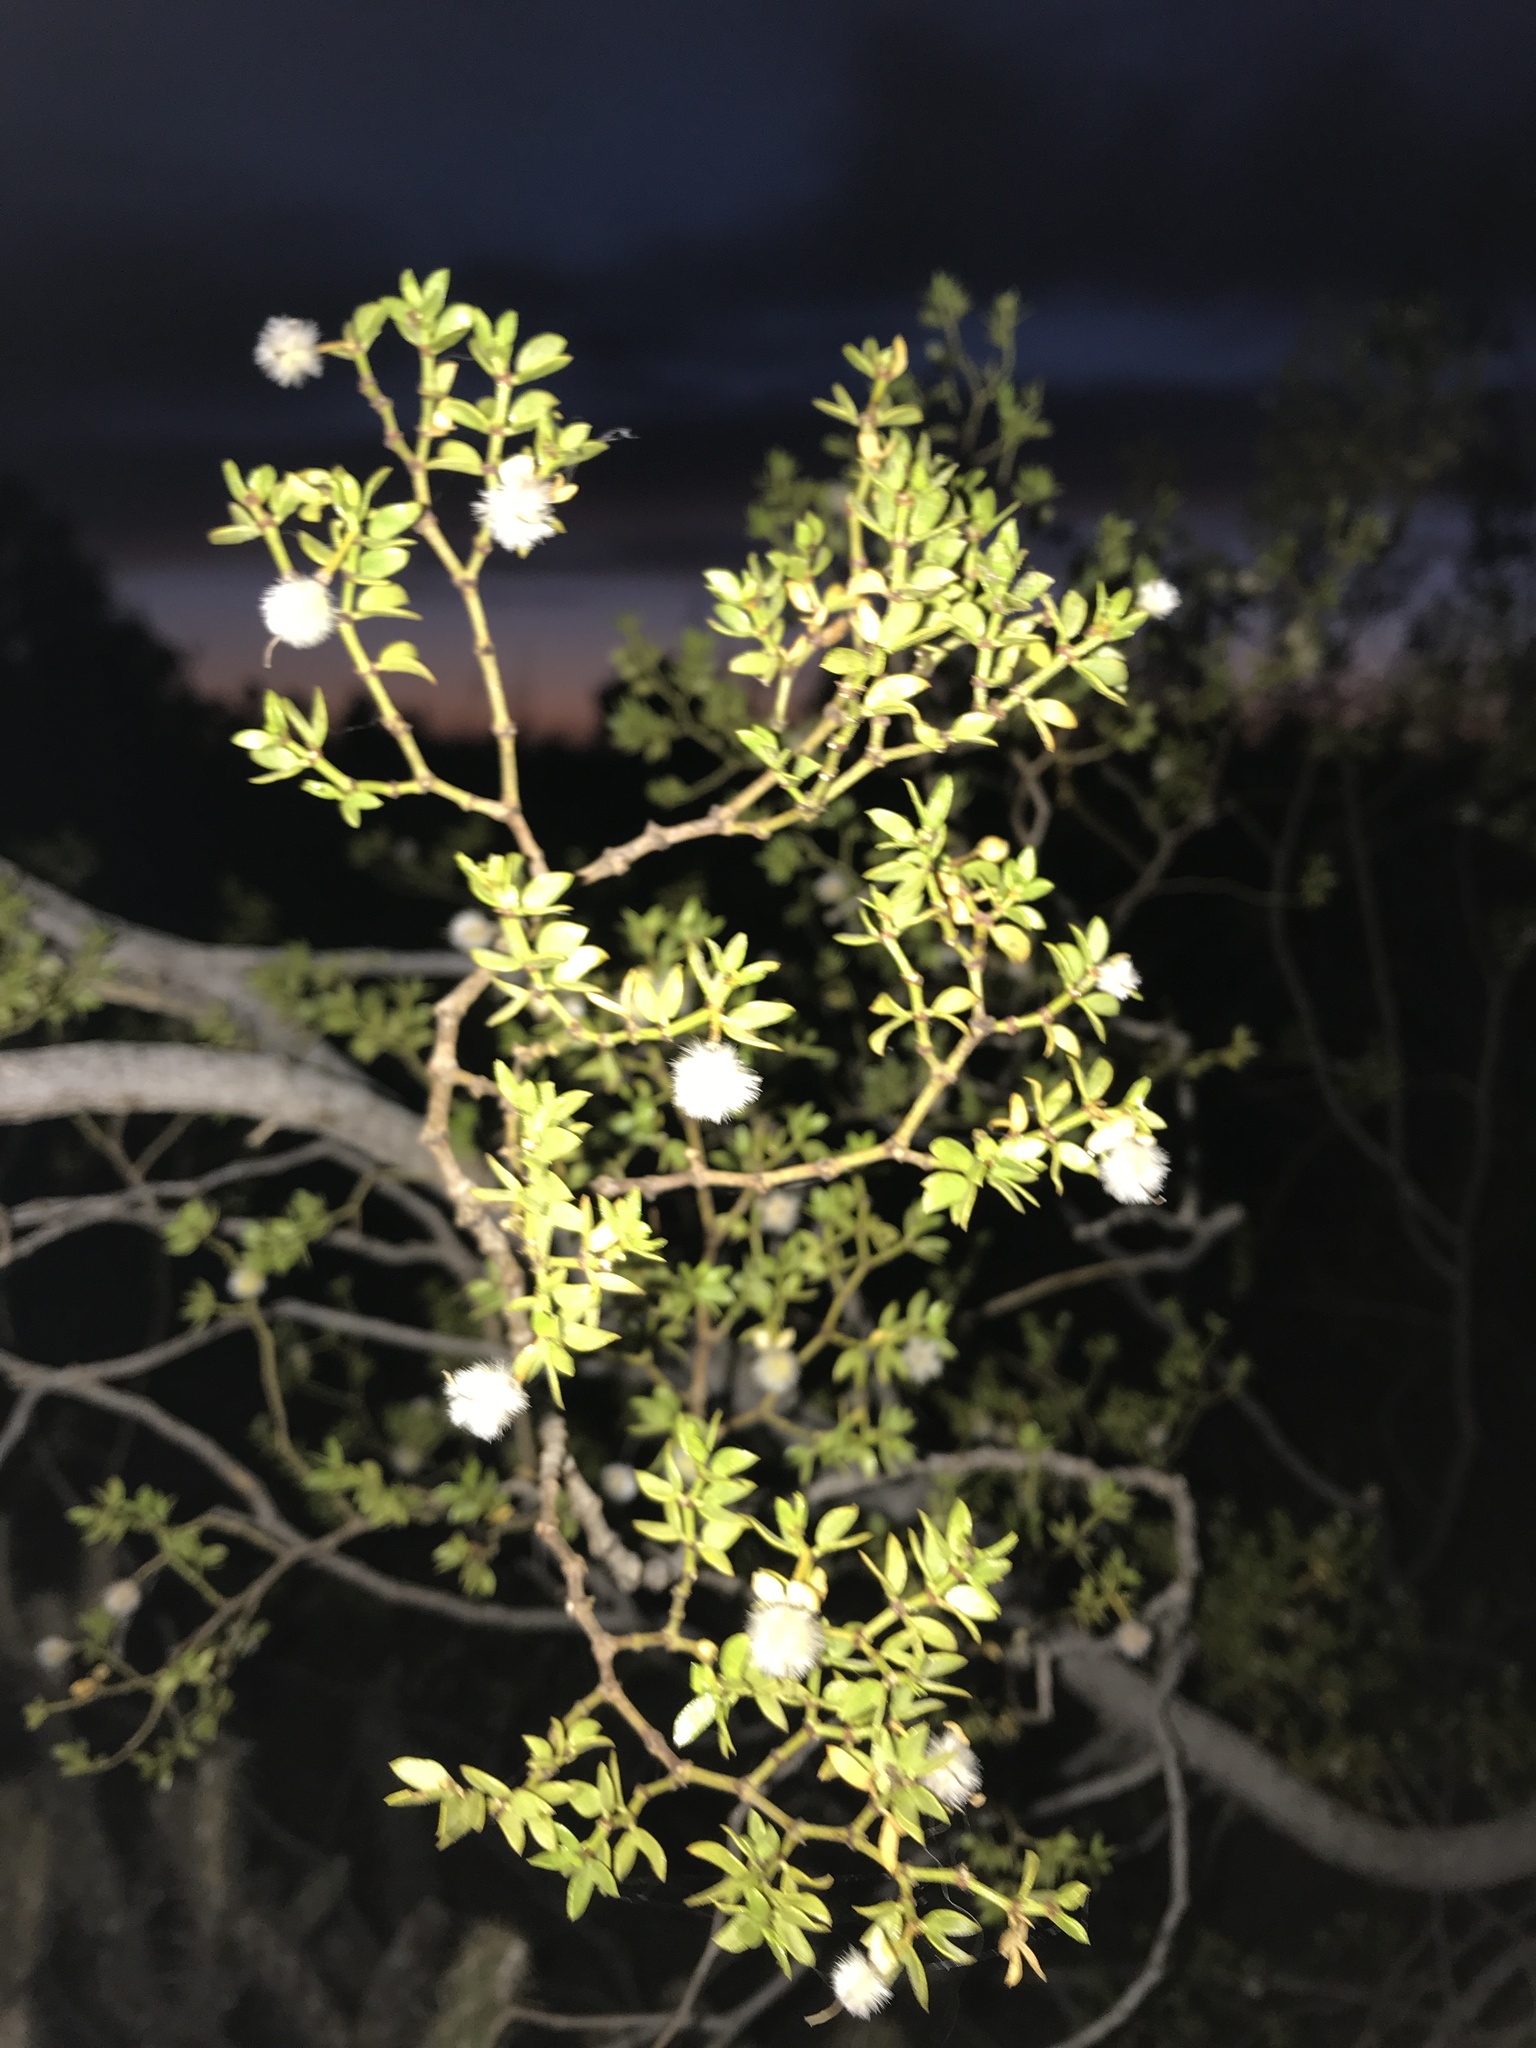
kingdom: Plantae
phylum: Tracheophyta
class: Magnoliopsida
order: Zygophyllales
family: Zygophyllaceae
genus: Larrea
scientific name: Larrea tridentata
